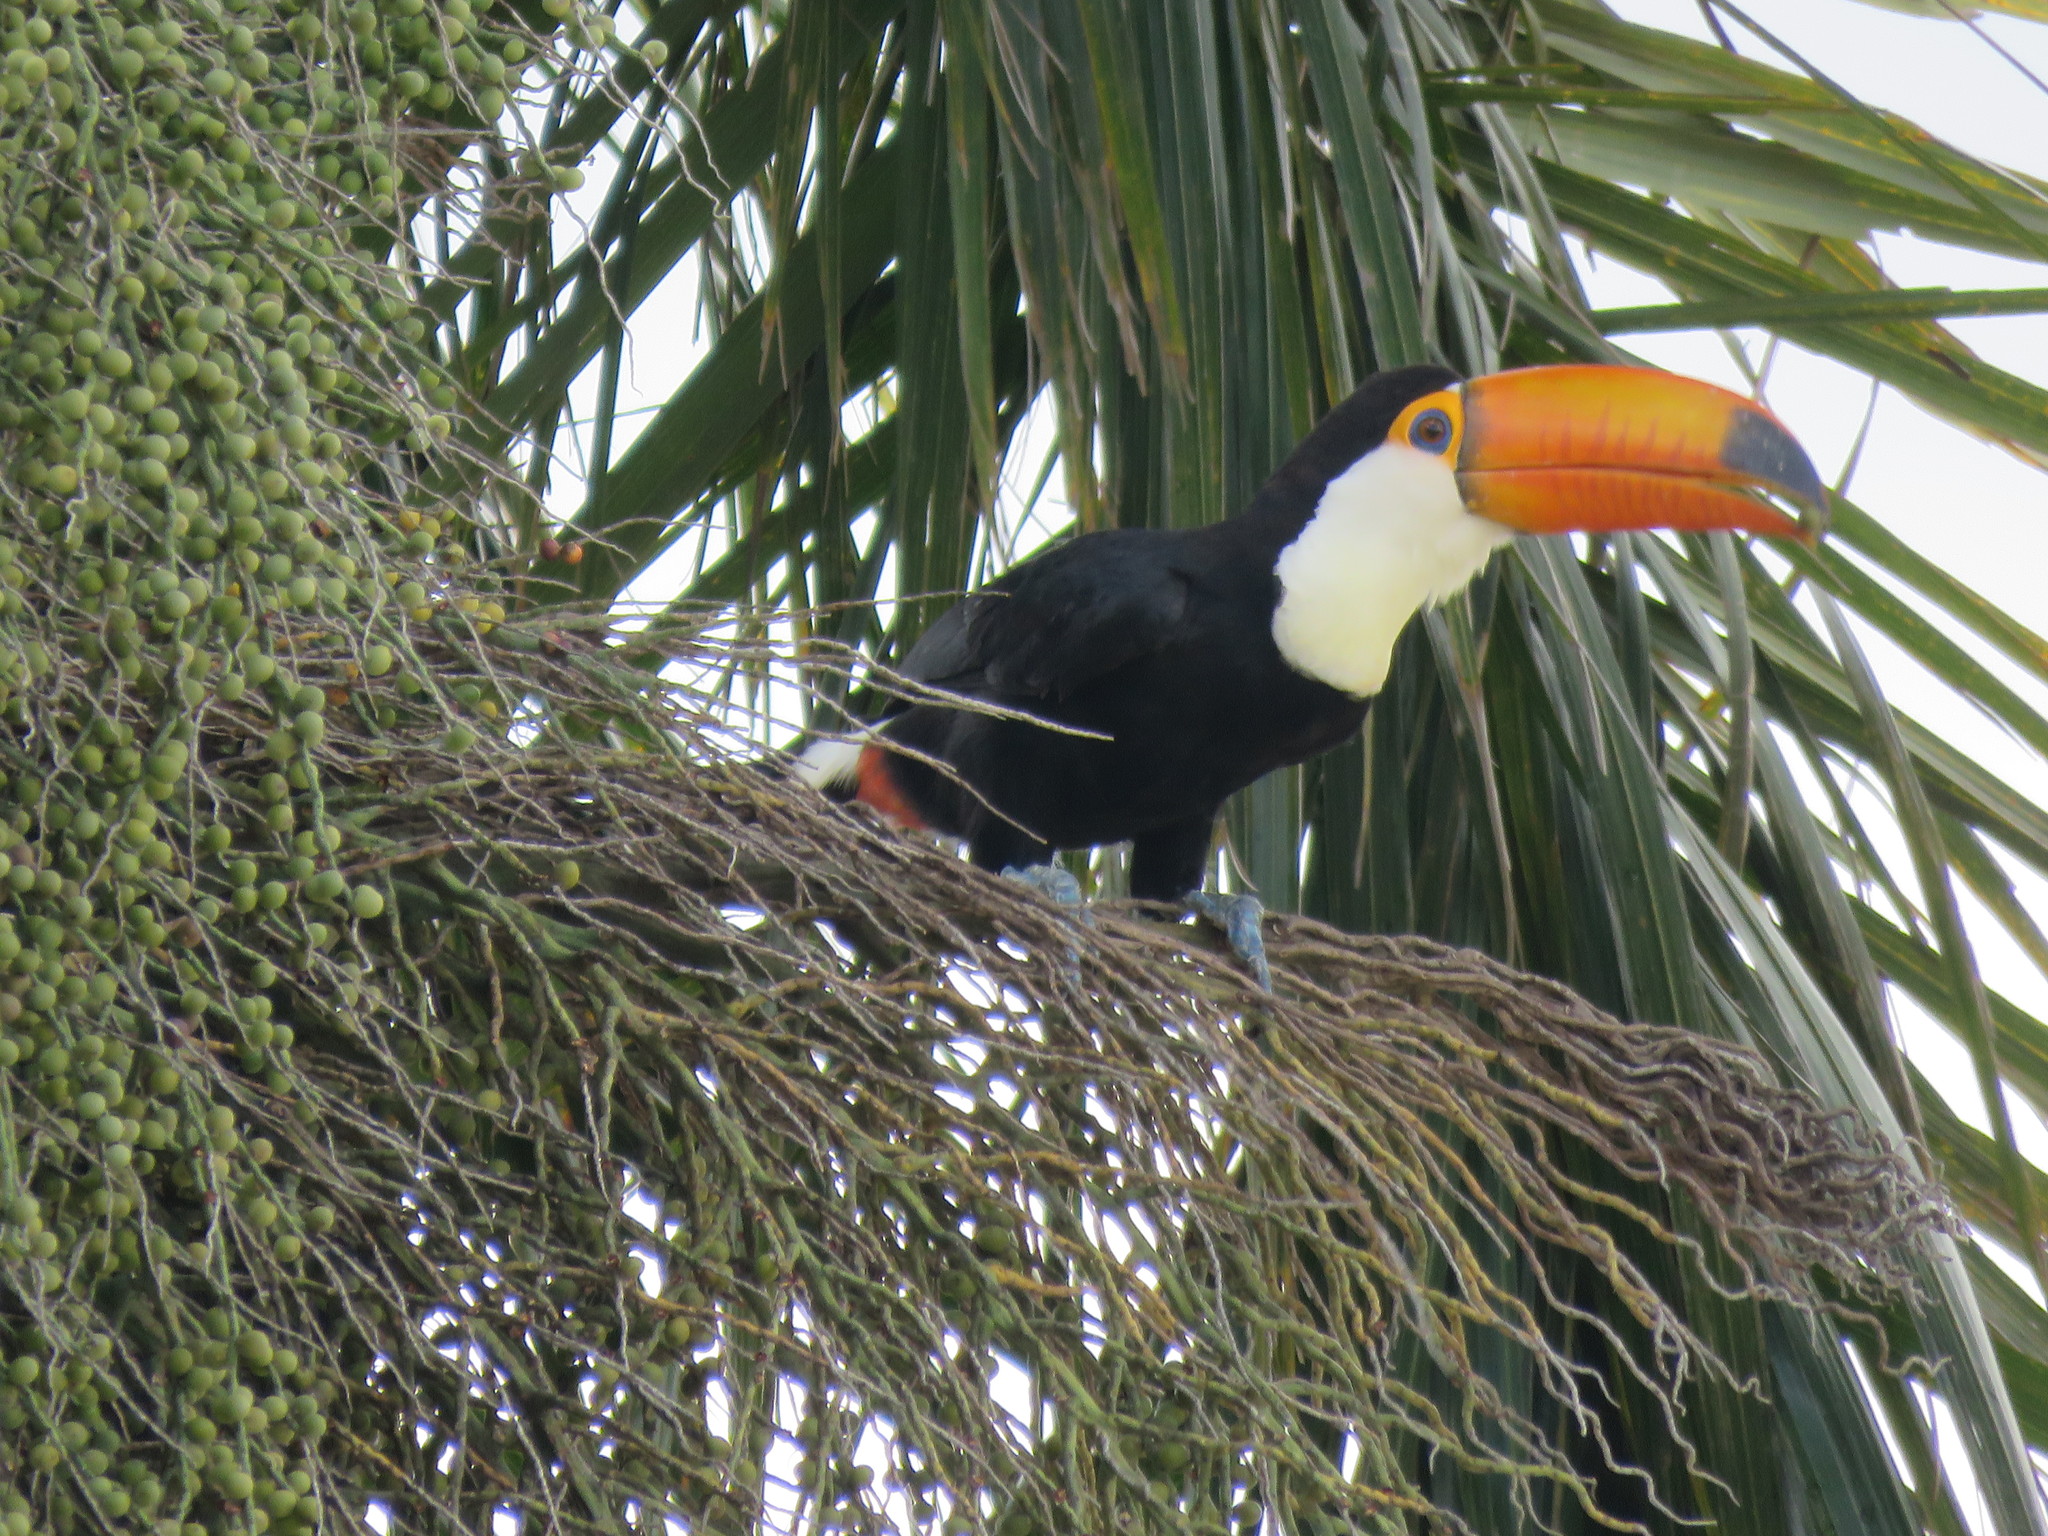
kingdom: Animalia
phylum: Chordata
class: Aves
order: Piciformes
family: Ramphastidae
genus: Ramphastos
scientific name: Ramphastos toco
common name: Toco toucan
